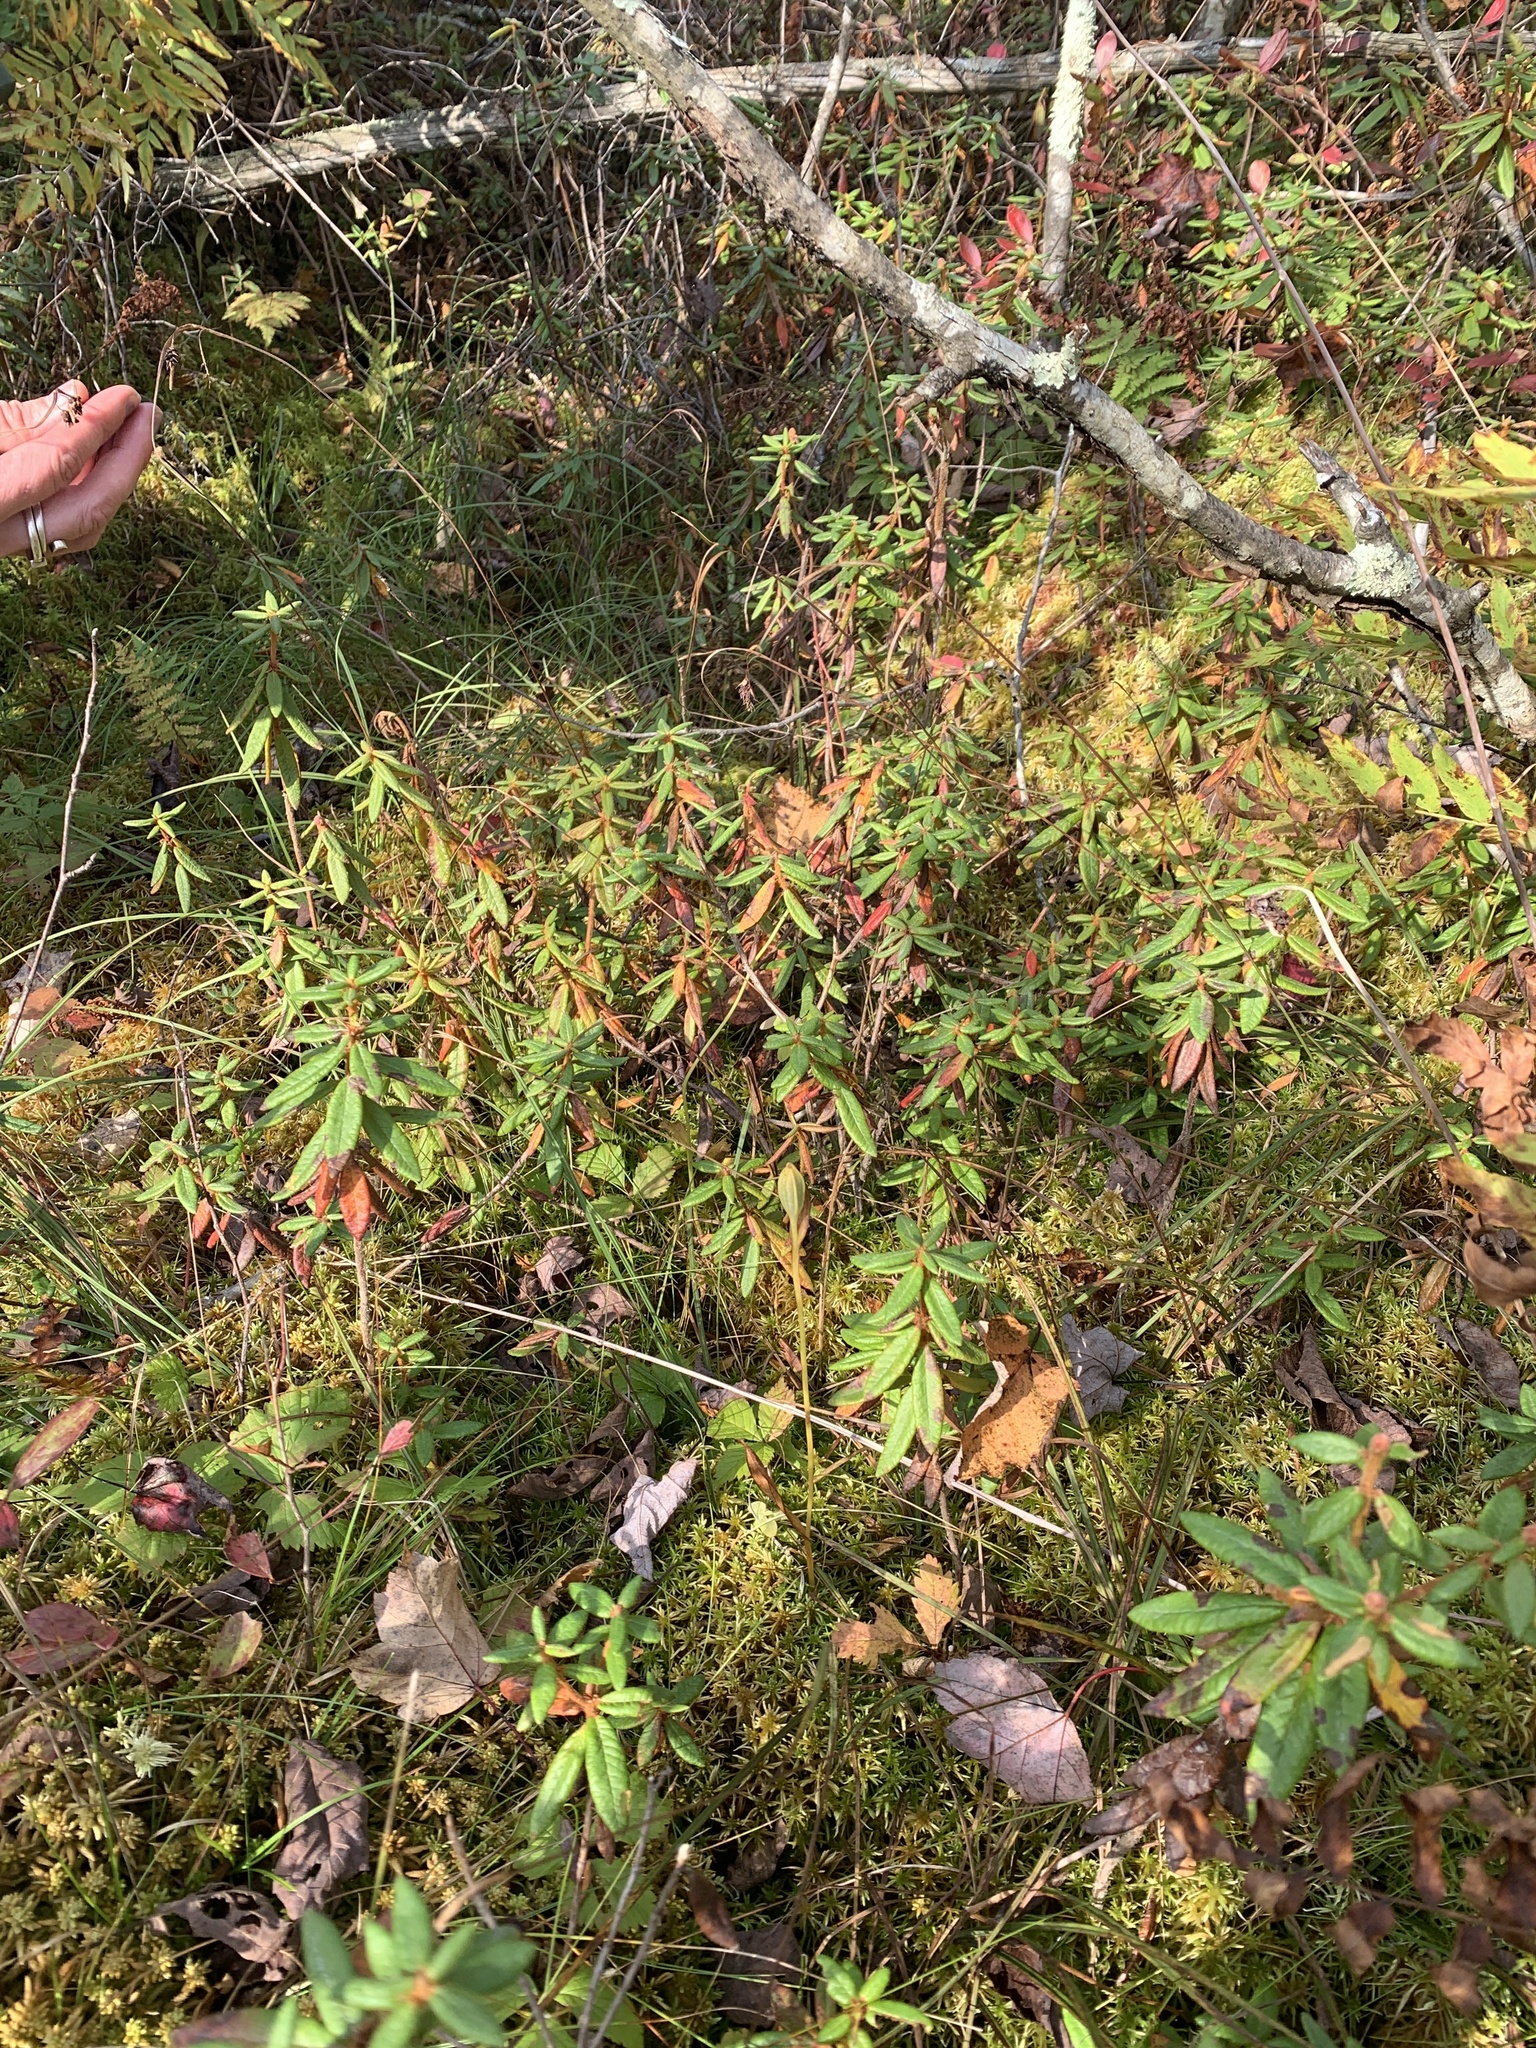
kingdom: Plantae
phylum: Tracheophyta
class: Liliopsida
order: Poales
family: Cyperaceae
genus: Carex
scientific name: Carex magellanica
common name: Bog sedge
